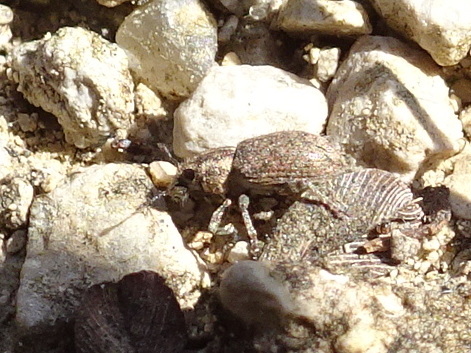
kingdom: Animalia
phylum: Arthropoda
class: Insecta
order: Coleoptera
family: Curculionidae
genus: Sitona
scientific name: Sitona hispidulus
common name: Clover weevil
